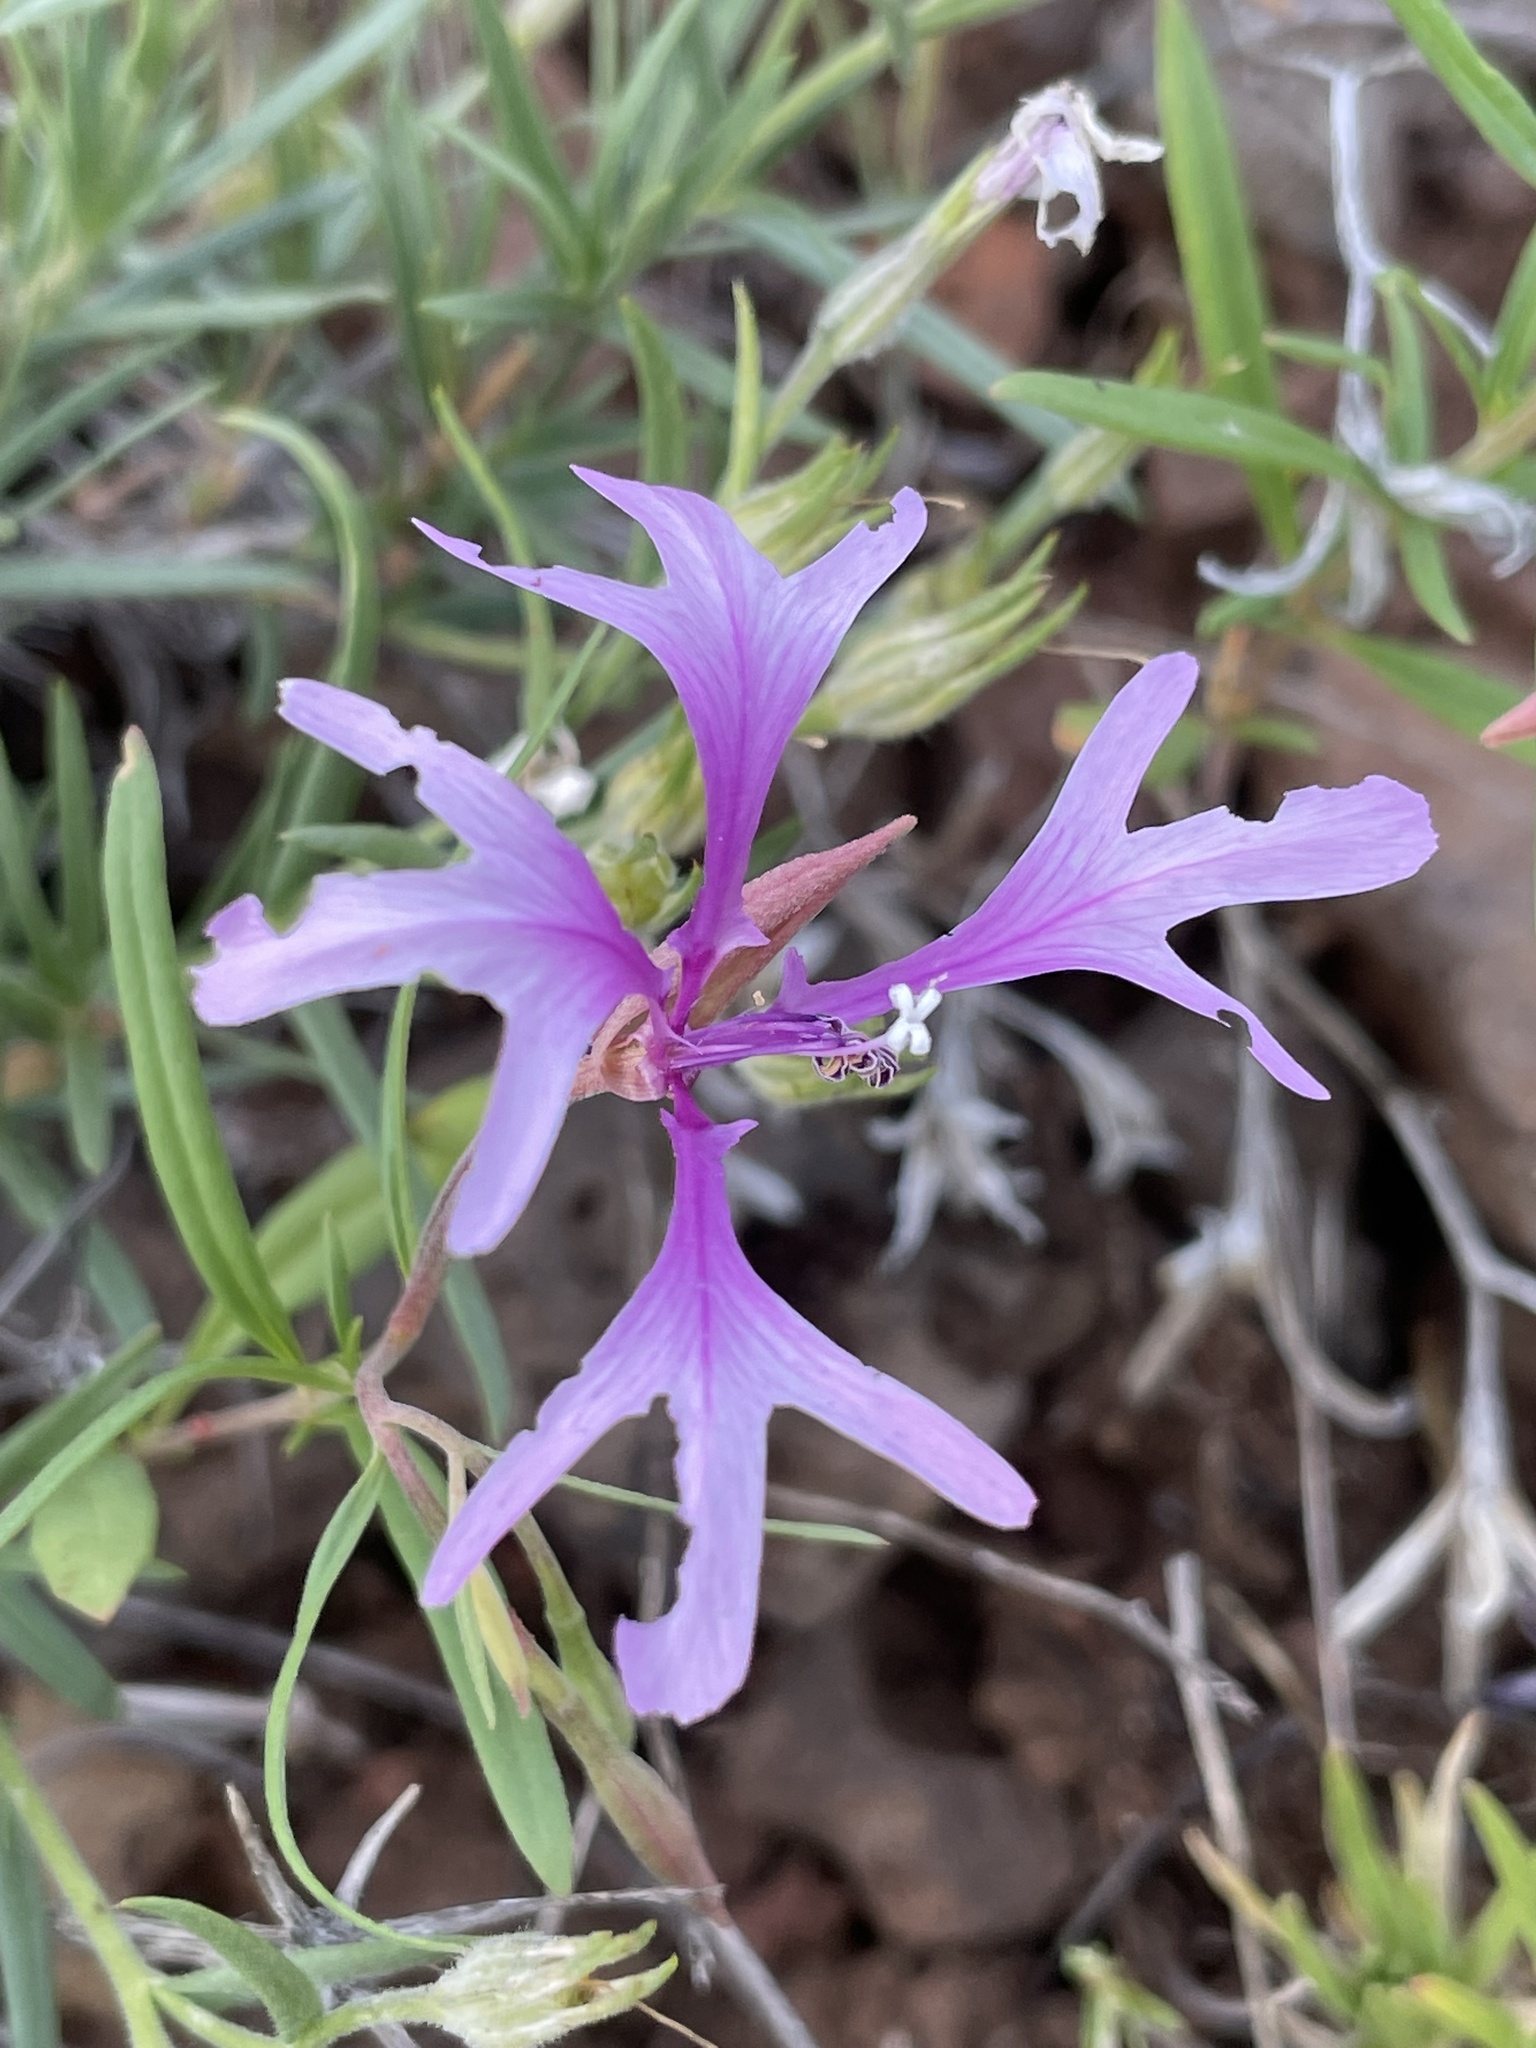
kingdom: Plantae
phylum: Tracheophyta
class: Magnoliopsida
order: Myrtales
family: Onagraceae
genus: Clarkia
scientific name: Clarkia pulchella
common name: Deer horn
